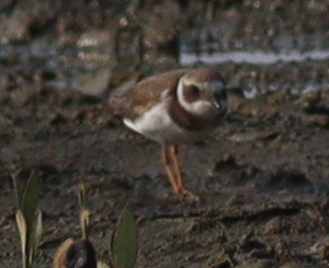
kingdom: Animalia
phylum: Chordata
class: Aves
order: Charadriiformes
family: Charadriidae
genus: Charadrius
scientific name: Charadrius hiaticula
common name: Common ringed plover
